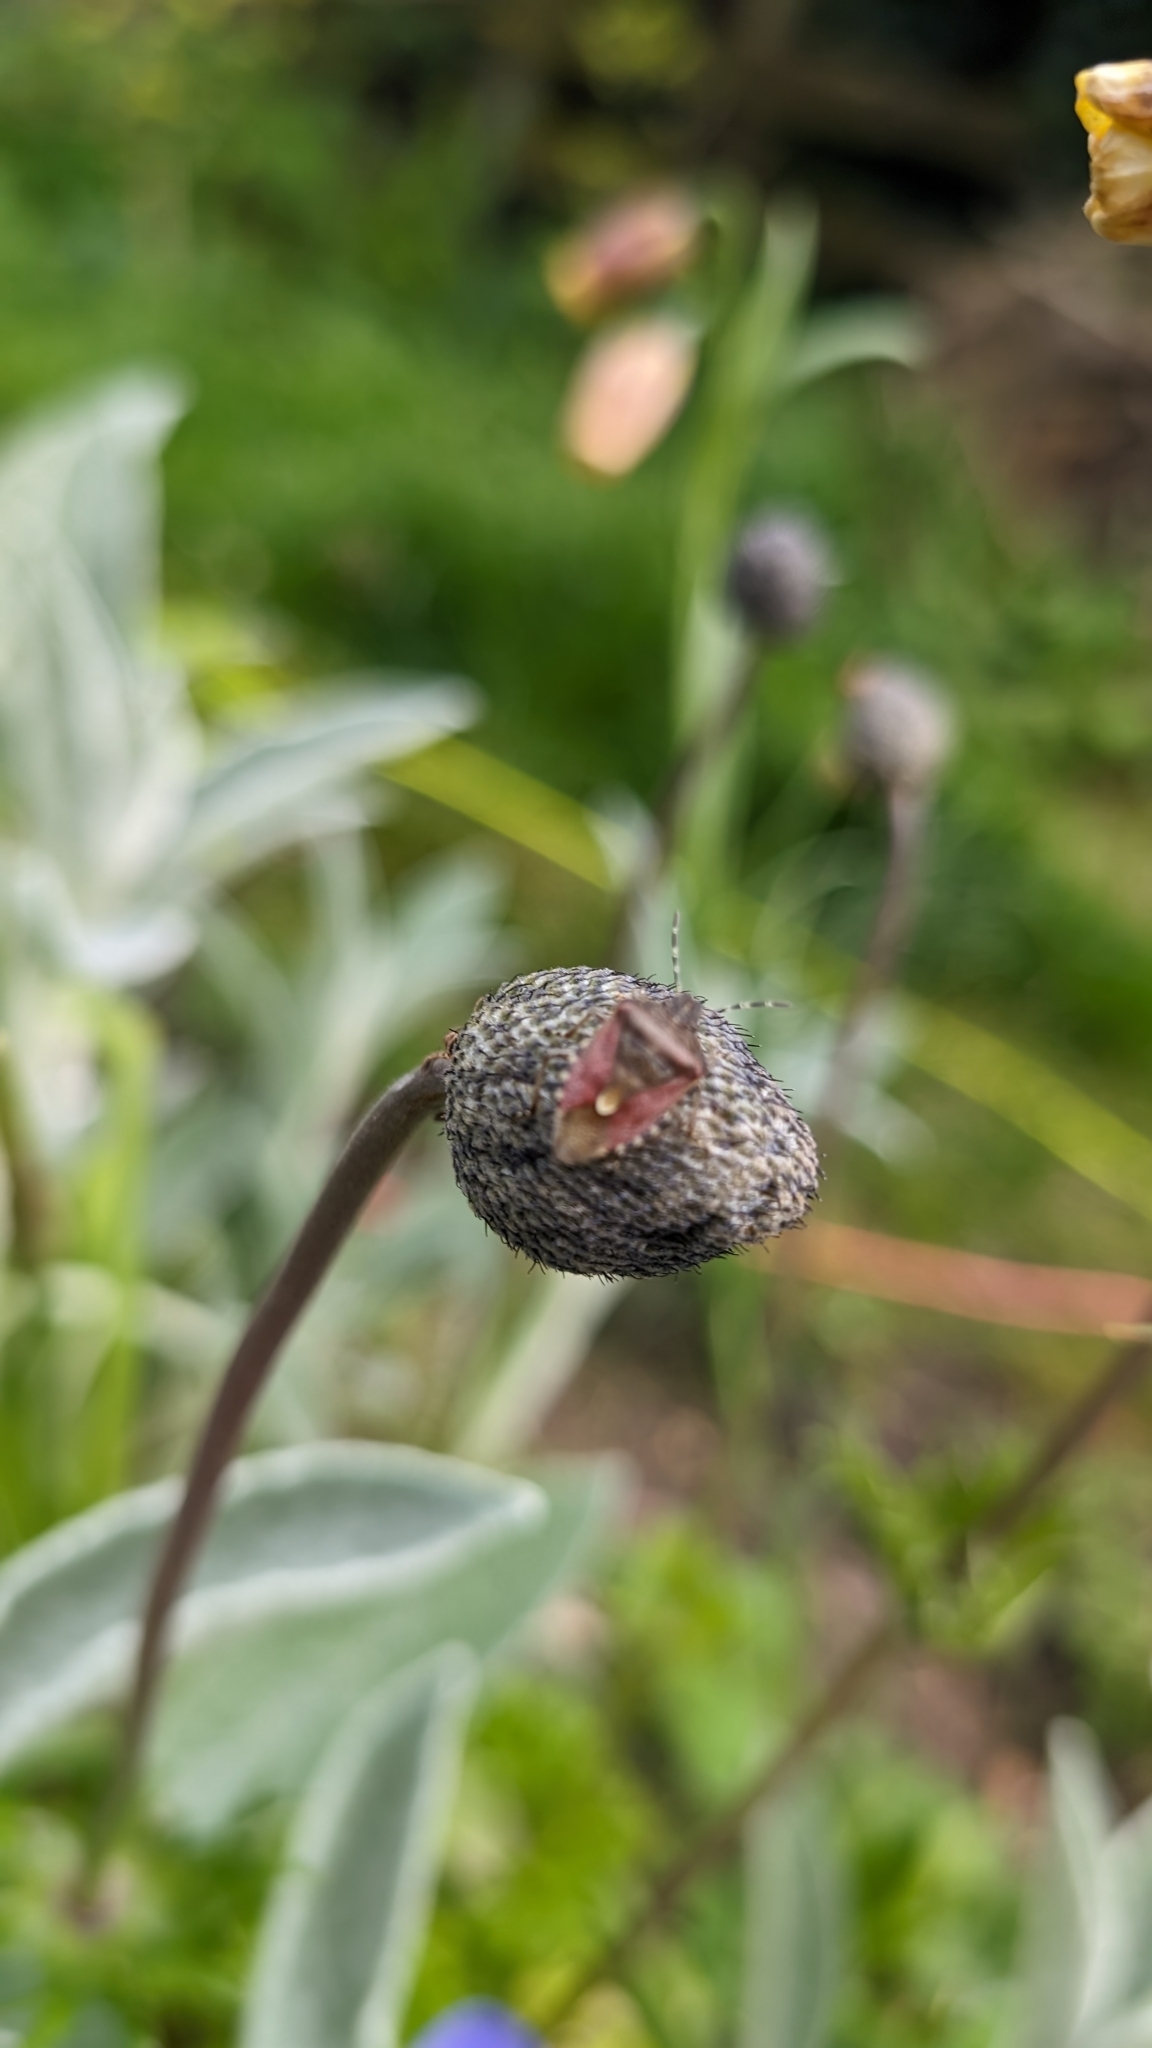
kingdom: Animalia
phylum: Arthropoda
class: Insecta
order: Hemiptera
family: Pentatomidae
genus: Dolycoris
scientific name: Dolycoris baccarum
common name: Sloe bug
